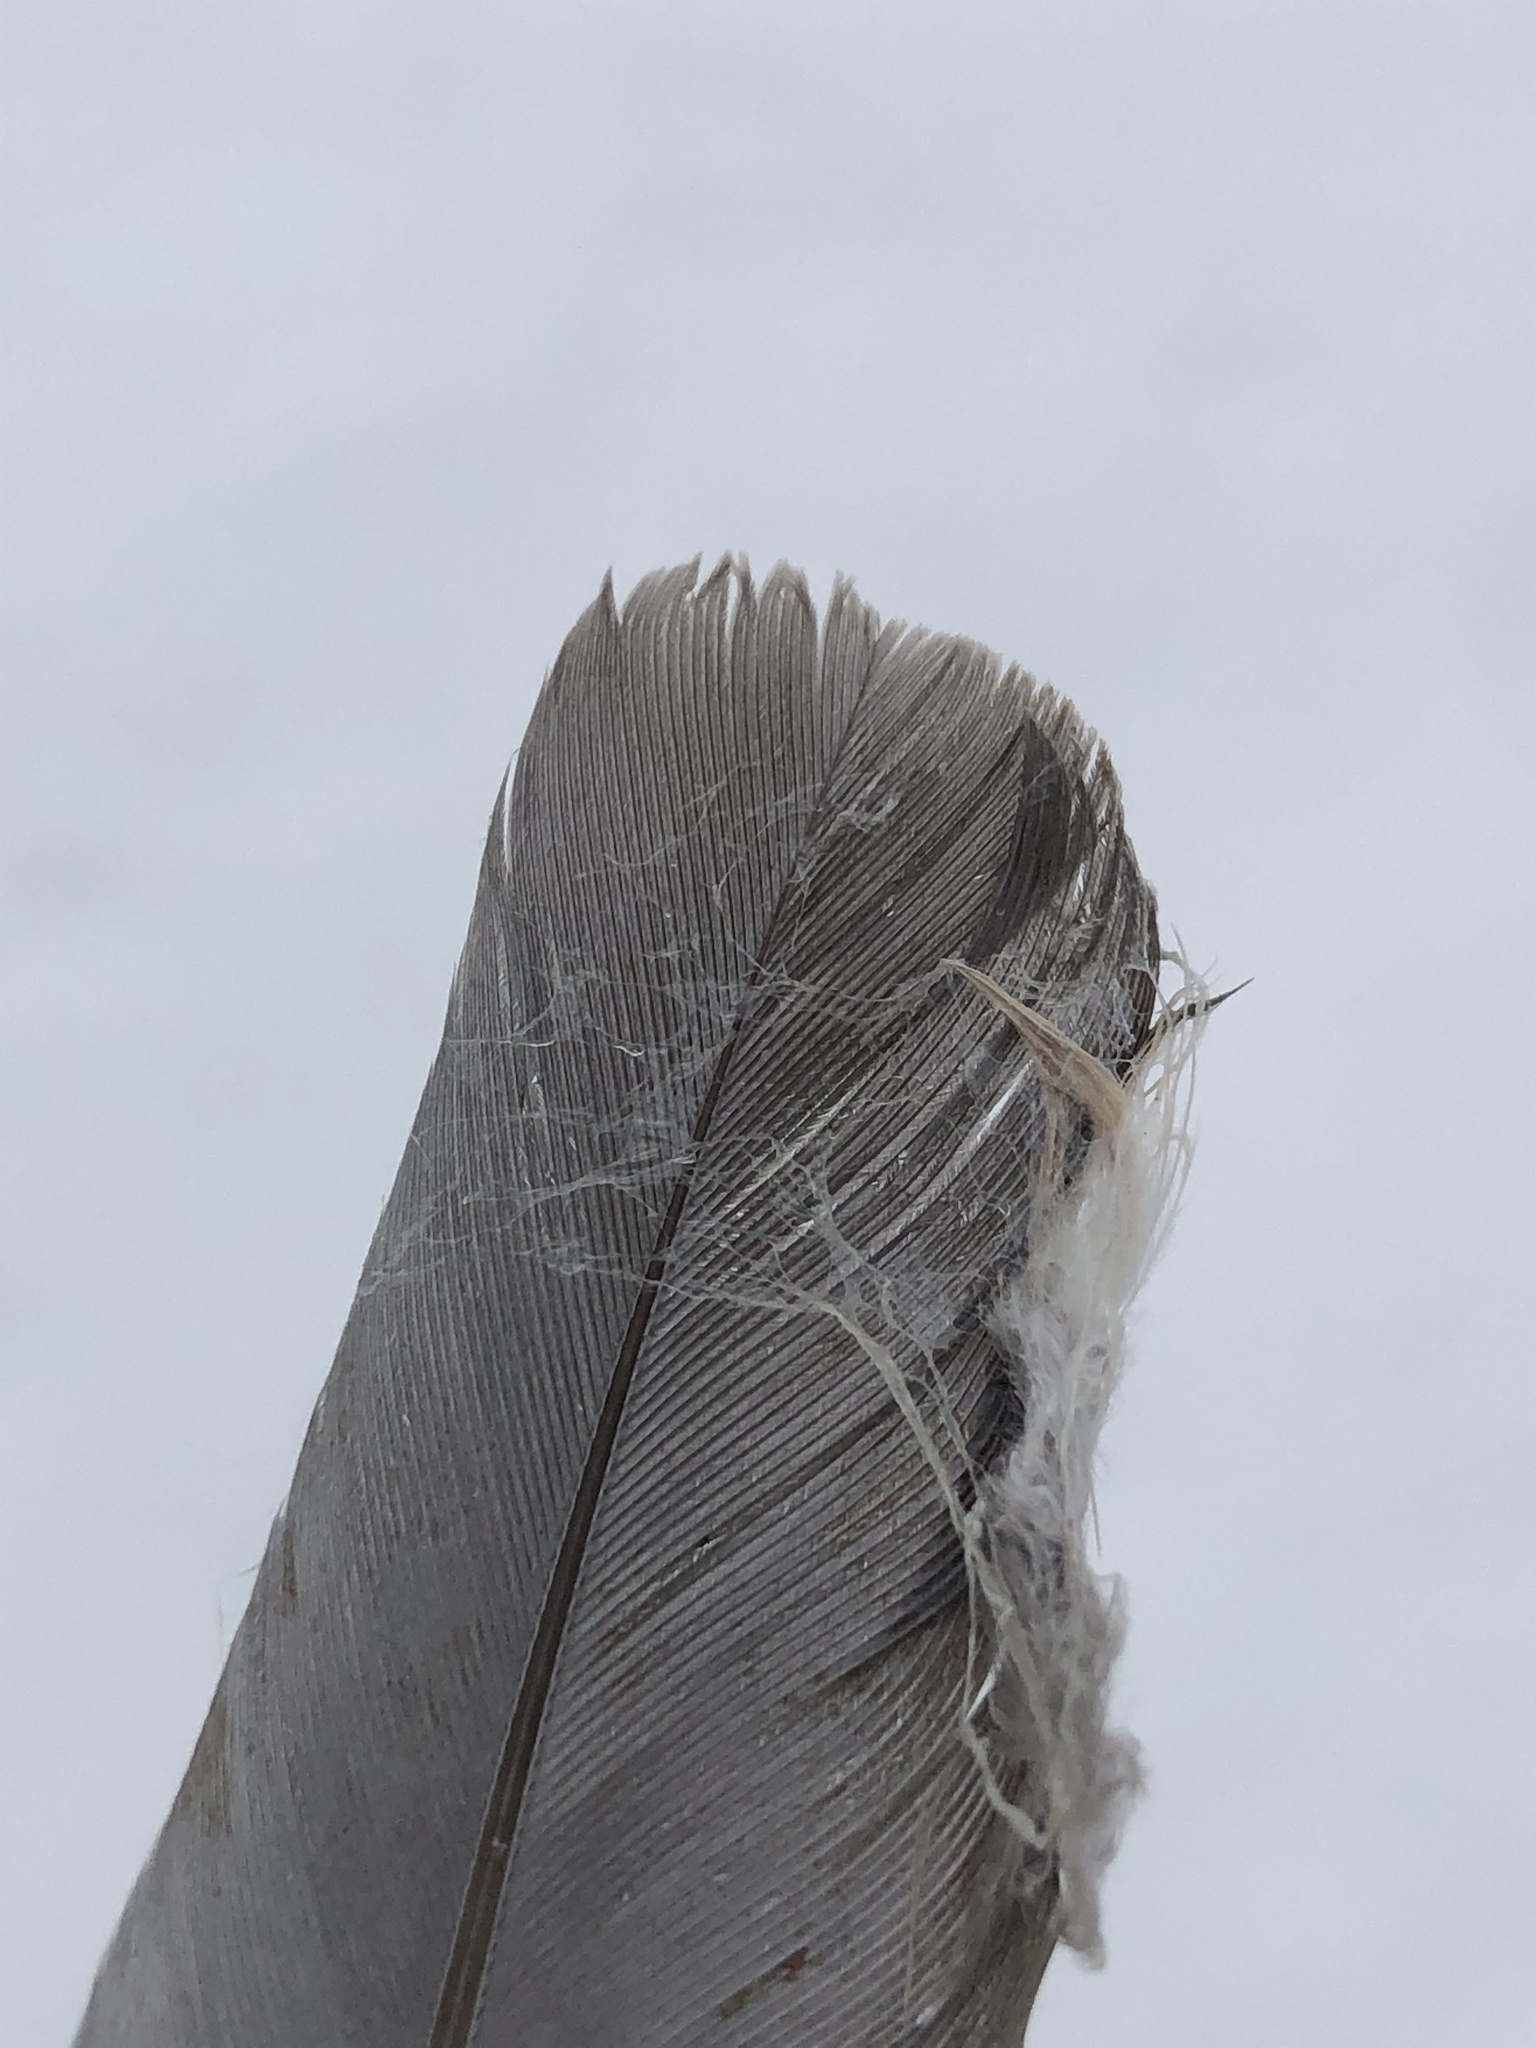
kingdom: Animalia
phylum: Chordata
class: Aves
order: Columbiformes
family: Columbidae
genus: Zenaida
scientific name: Zenaida macroura
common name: Mourning dove
